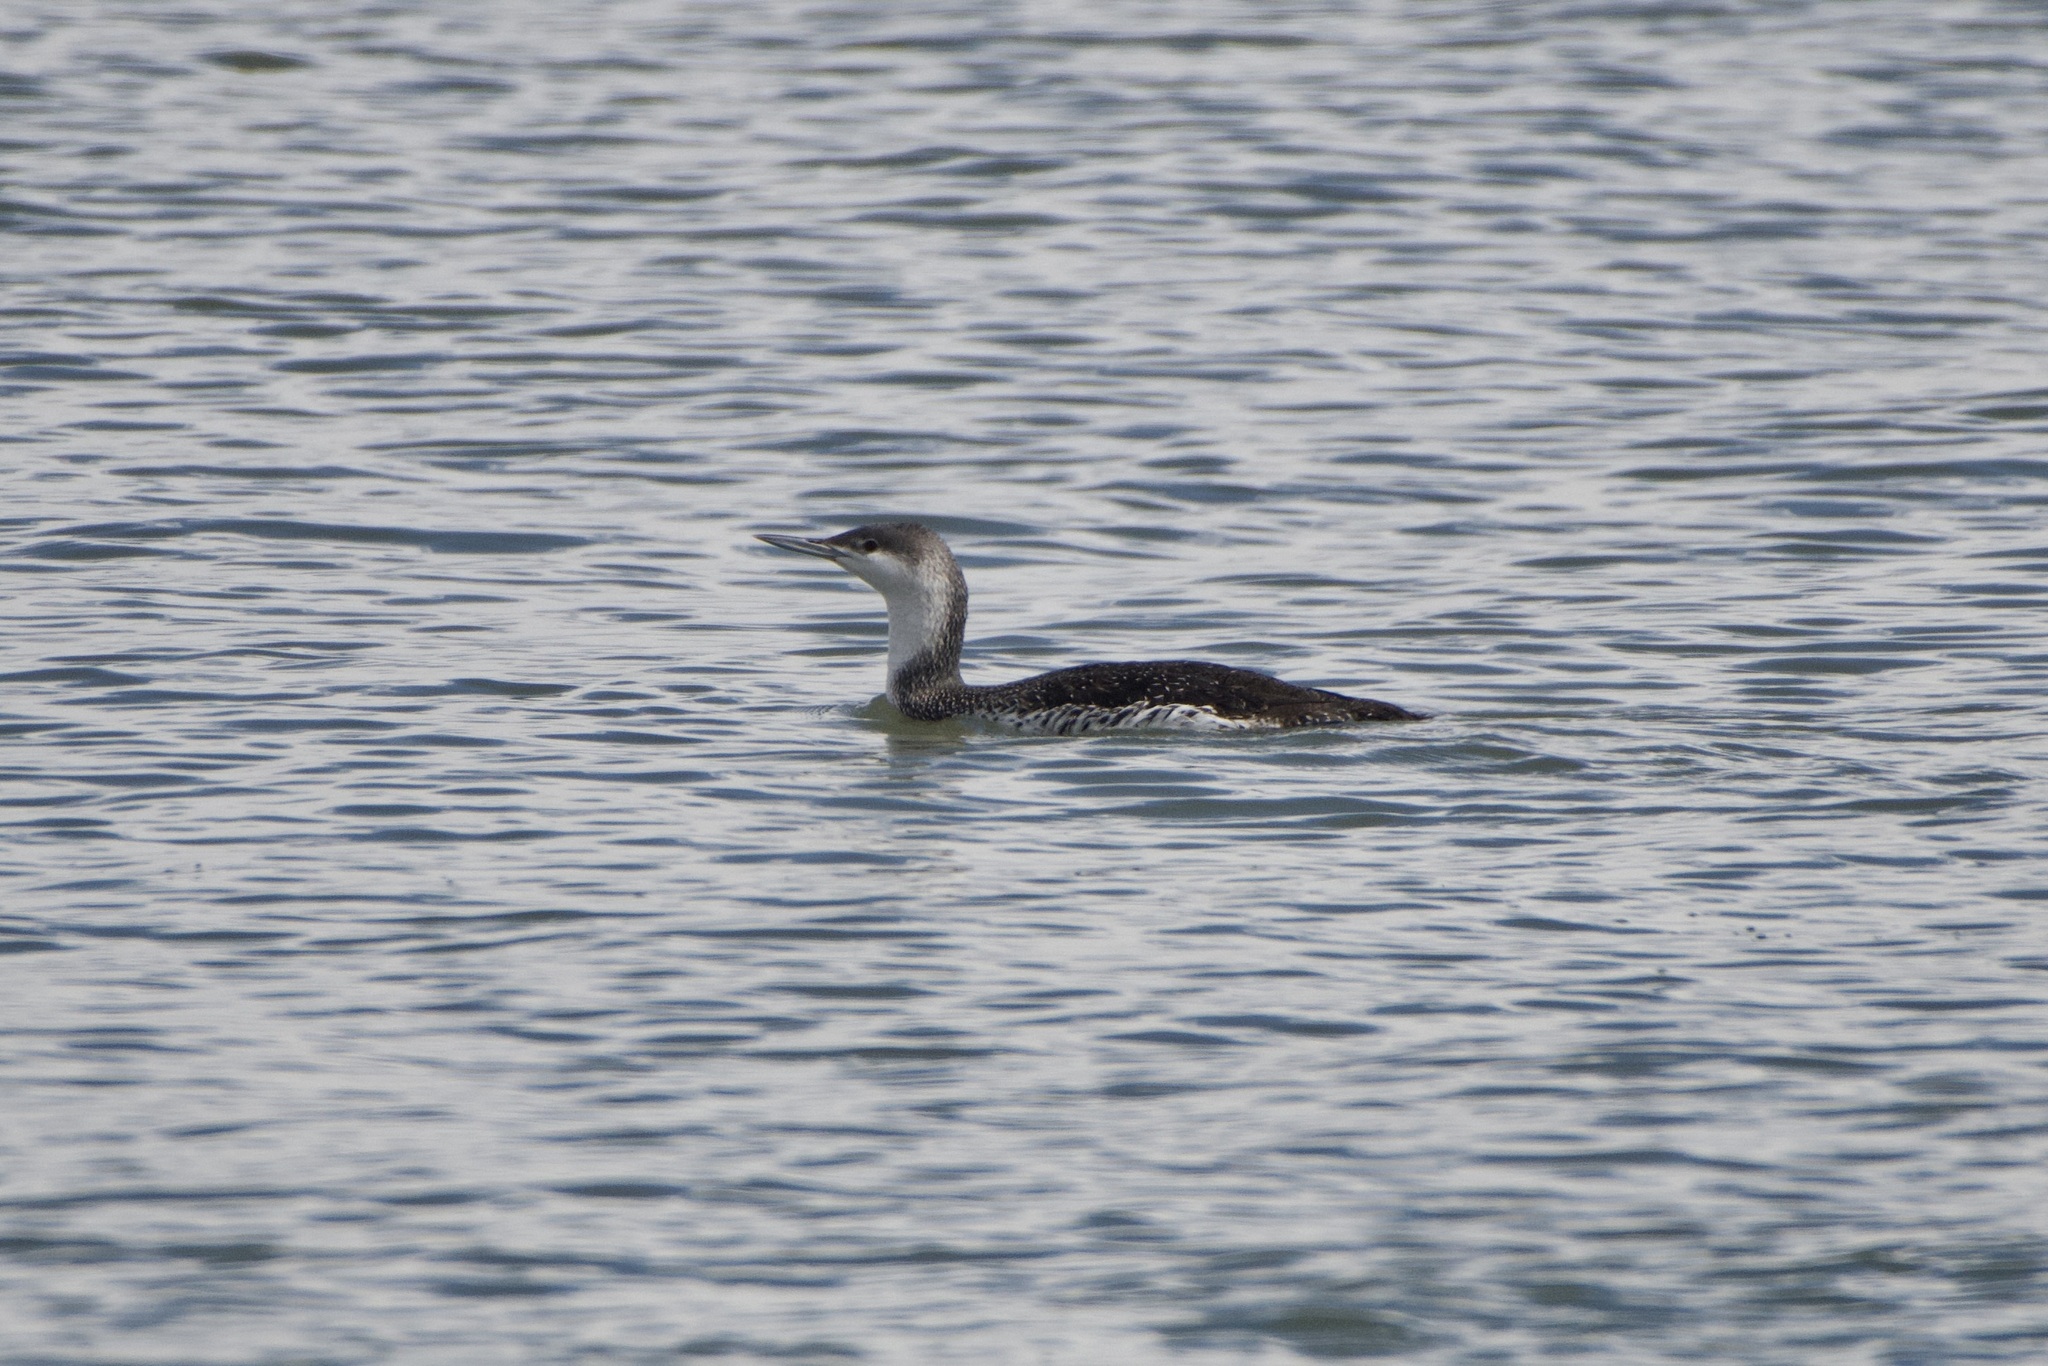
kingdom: Animalia
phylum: Chordata
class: Aves
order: Gaviiformes
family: Gaviidae
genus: Gavia
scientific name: Gavia stellata
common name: Red-throated loon
